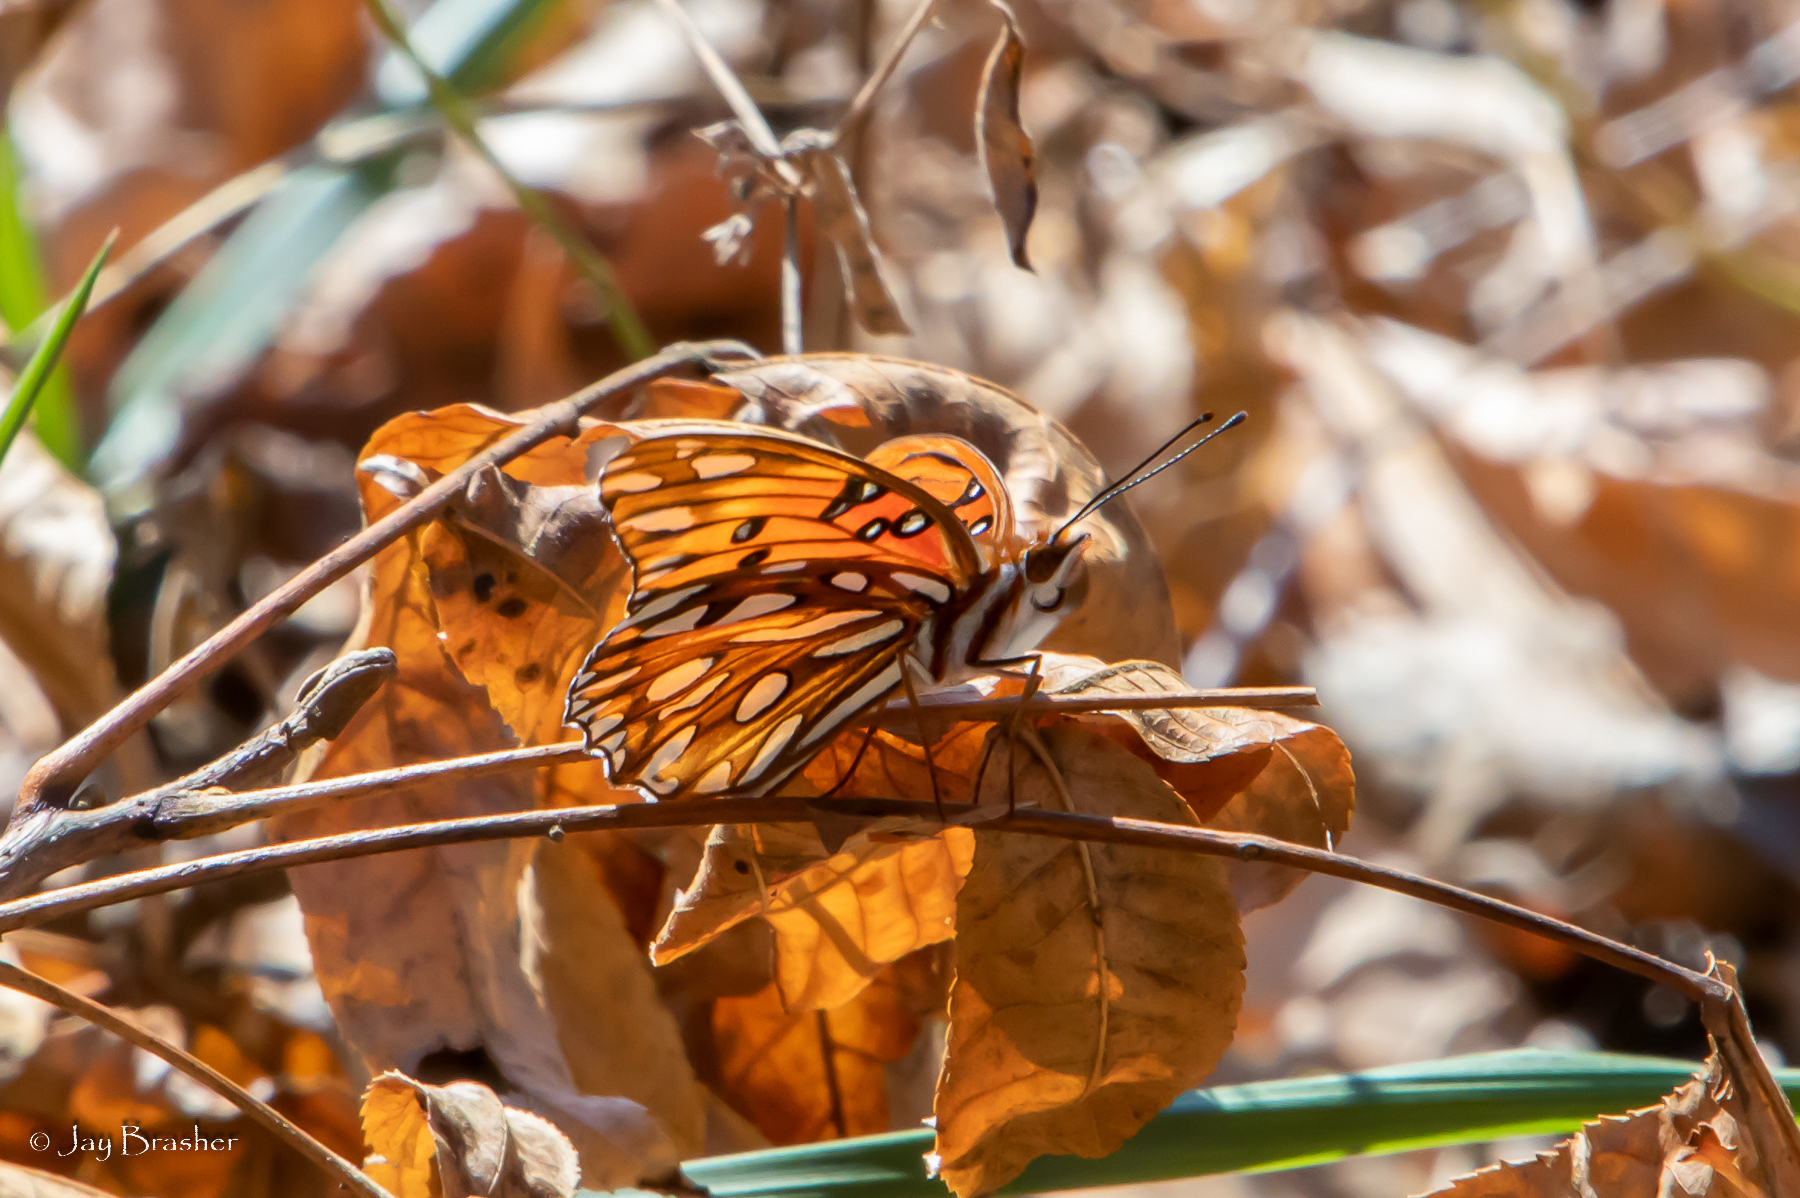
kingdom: Animalia
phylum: Arthropoda
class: Insecta
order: Lepidoptera
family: Nymphalidae
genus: Dione
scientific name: Dione vanillae
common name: Gulf fritillary
